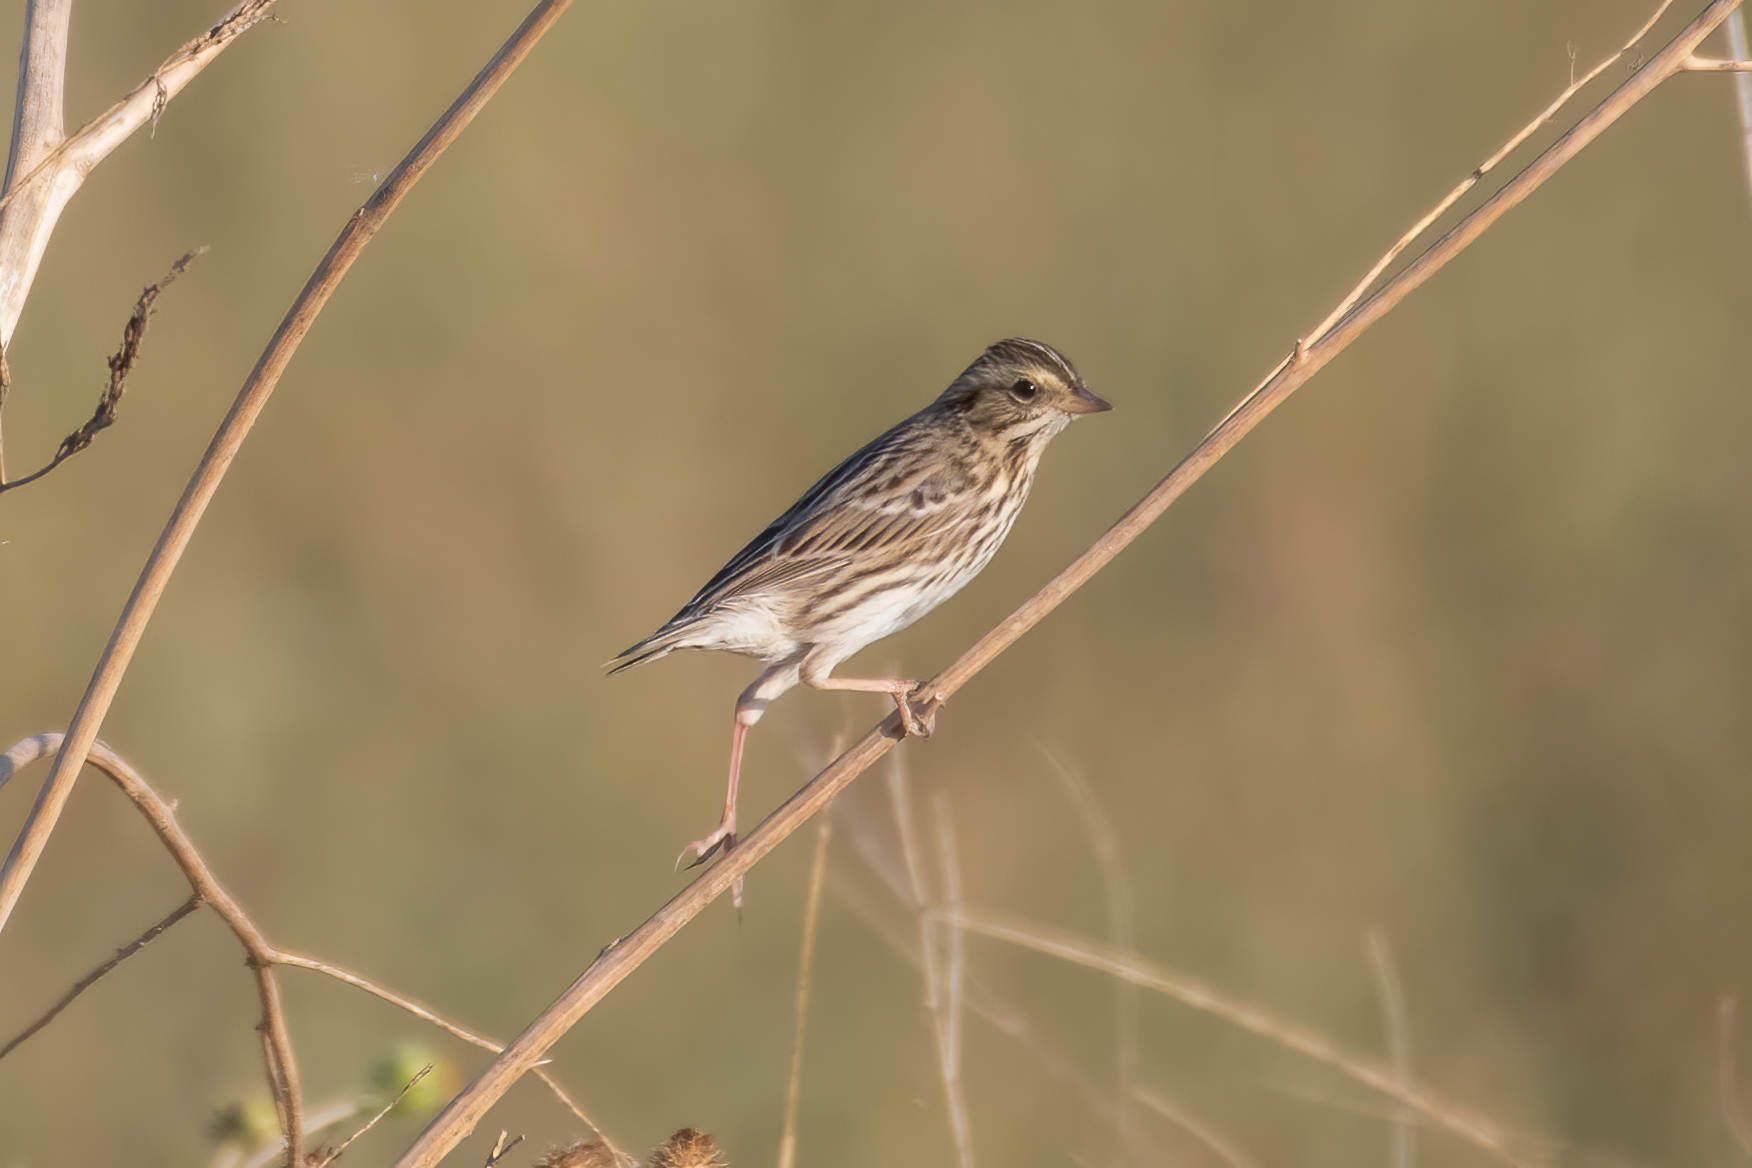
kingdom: Animalia
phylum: Chordata
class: Aves
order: Passeriformes
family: Passerellidae
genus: Passerculus
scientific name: Passerculus sandwichensis
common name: Savannah sparrow
